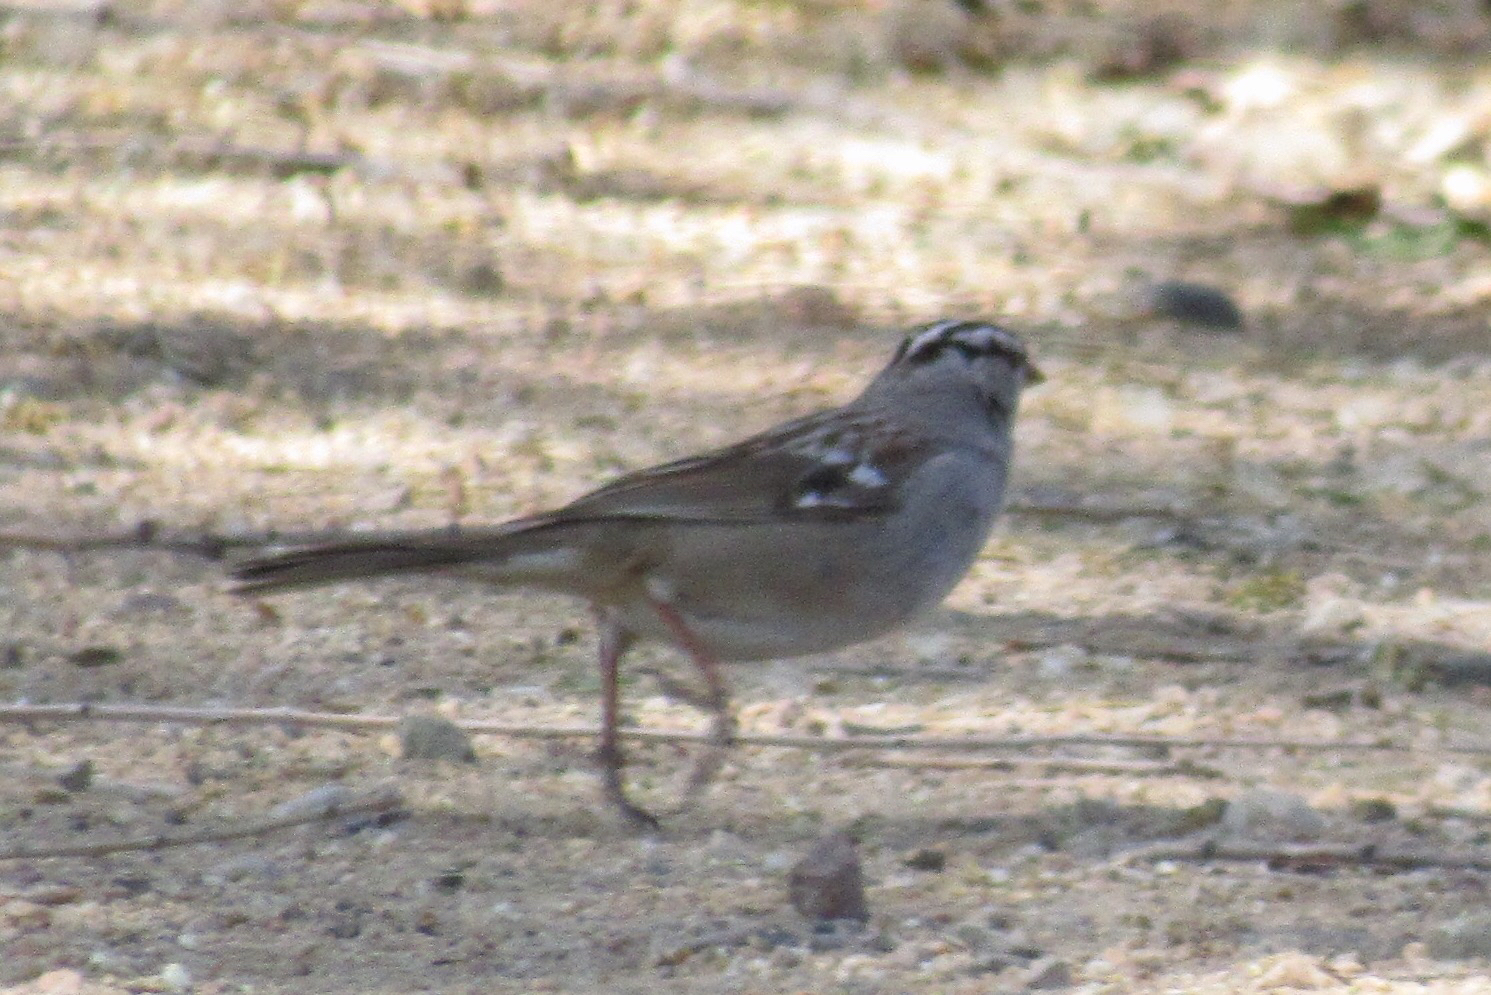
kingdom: Animalia
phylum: Chordata
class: Aves
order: Passeriformes
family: Passerellidae
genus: Zonotrichia
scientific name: Zonotrichia leucophrys
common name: White-crowned sparrow
